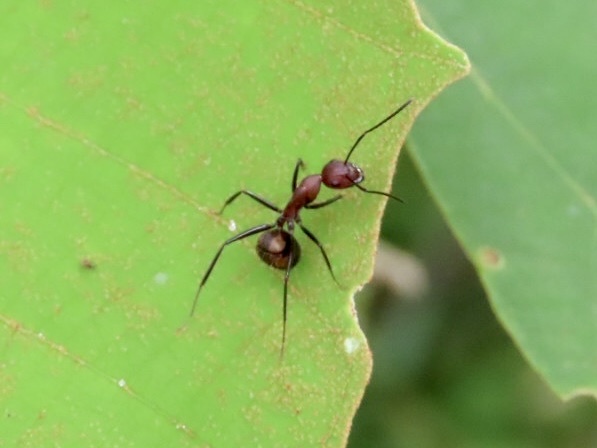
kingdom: Animalia
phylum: Arthropoda
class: Insecta
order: Hymenoptera
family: Formicidae
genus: Camponotus
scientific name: Camponotus nicobarensis
